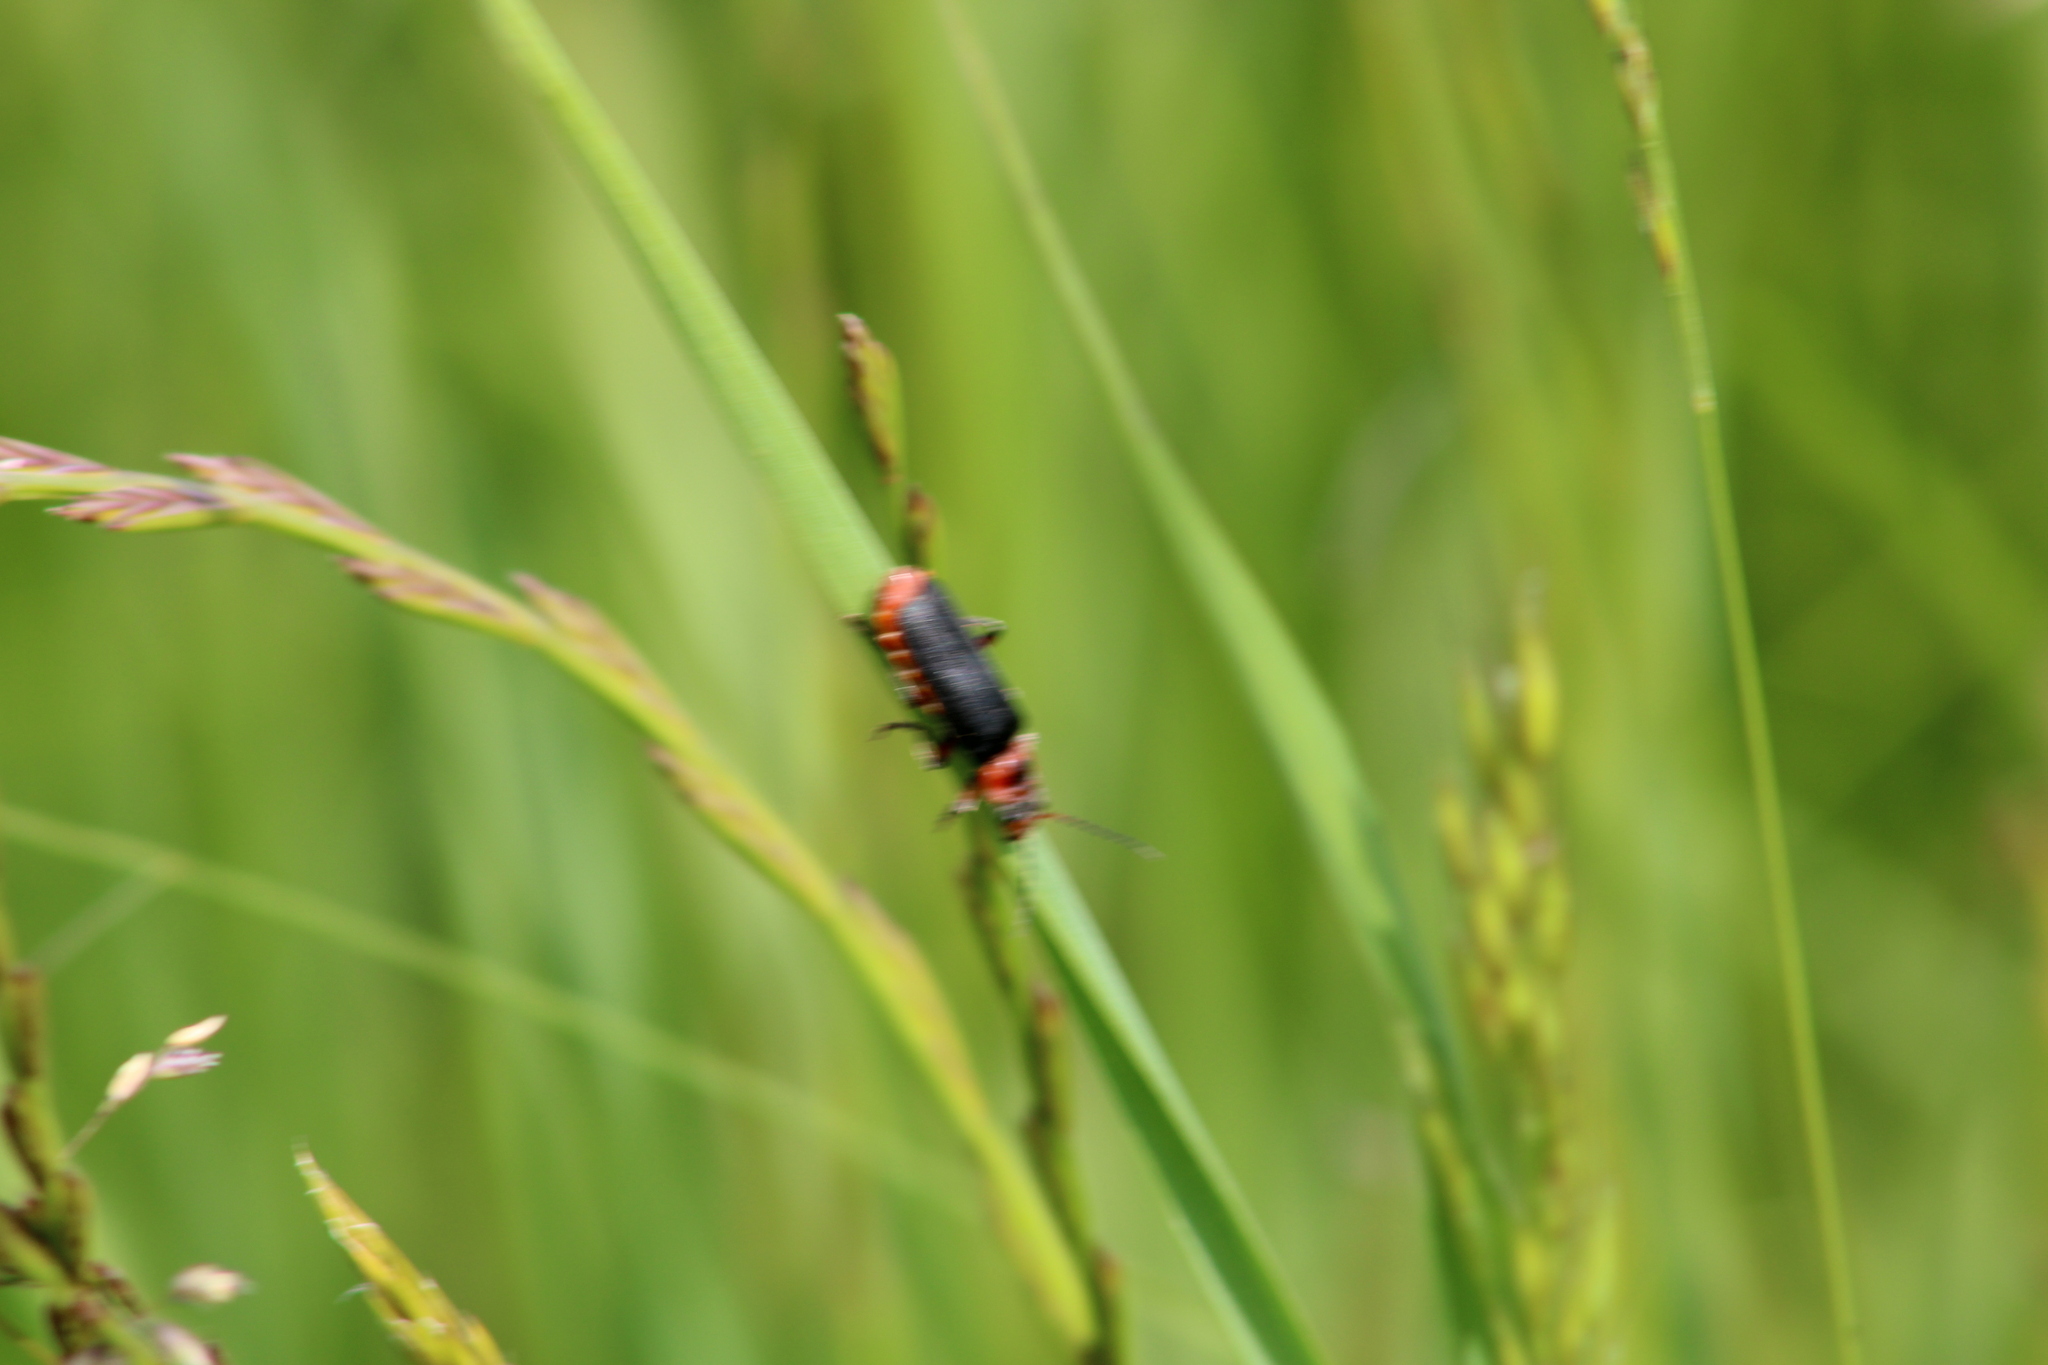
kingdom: Animalia
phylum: Arthropoda
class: Insecta
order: Coleoptera
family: Cantharidae
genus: Cantharis
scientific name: Cantharis rustica
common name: Soldier beetle
